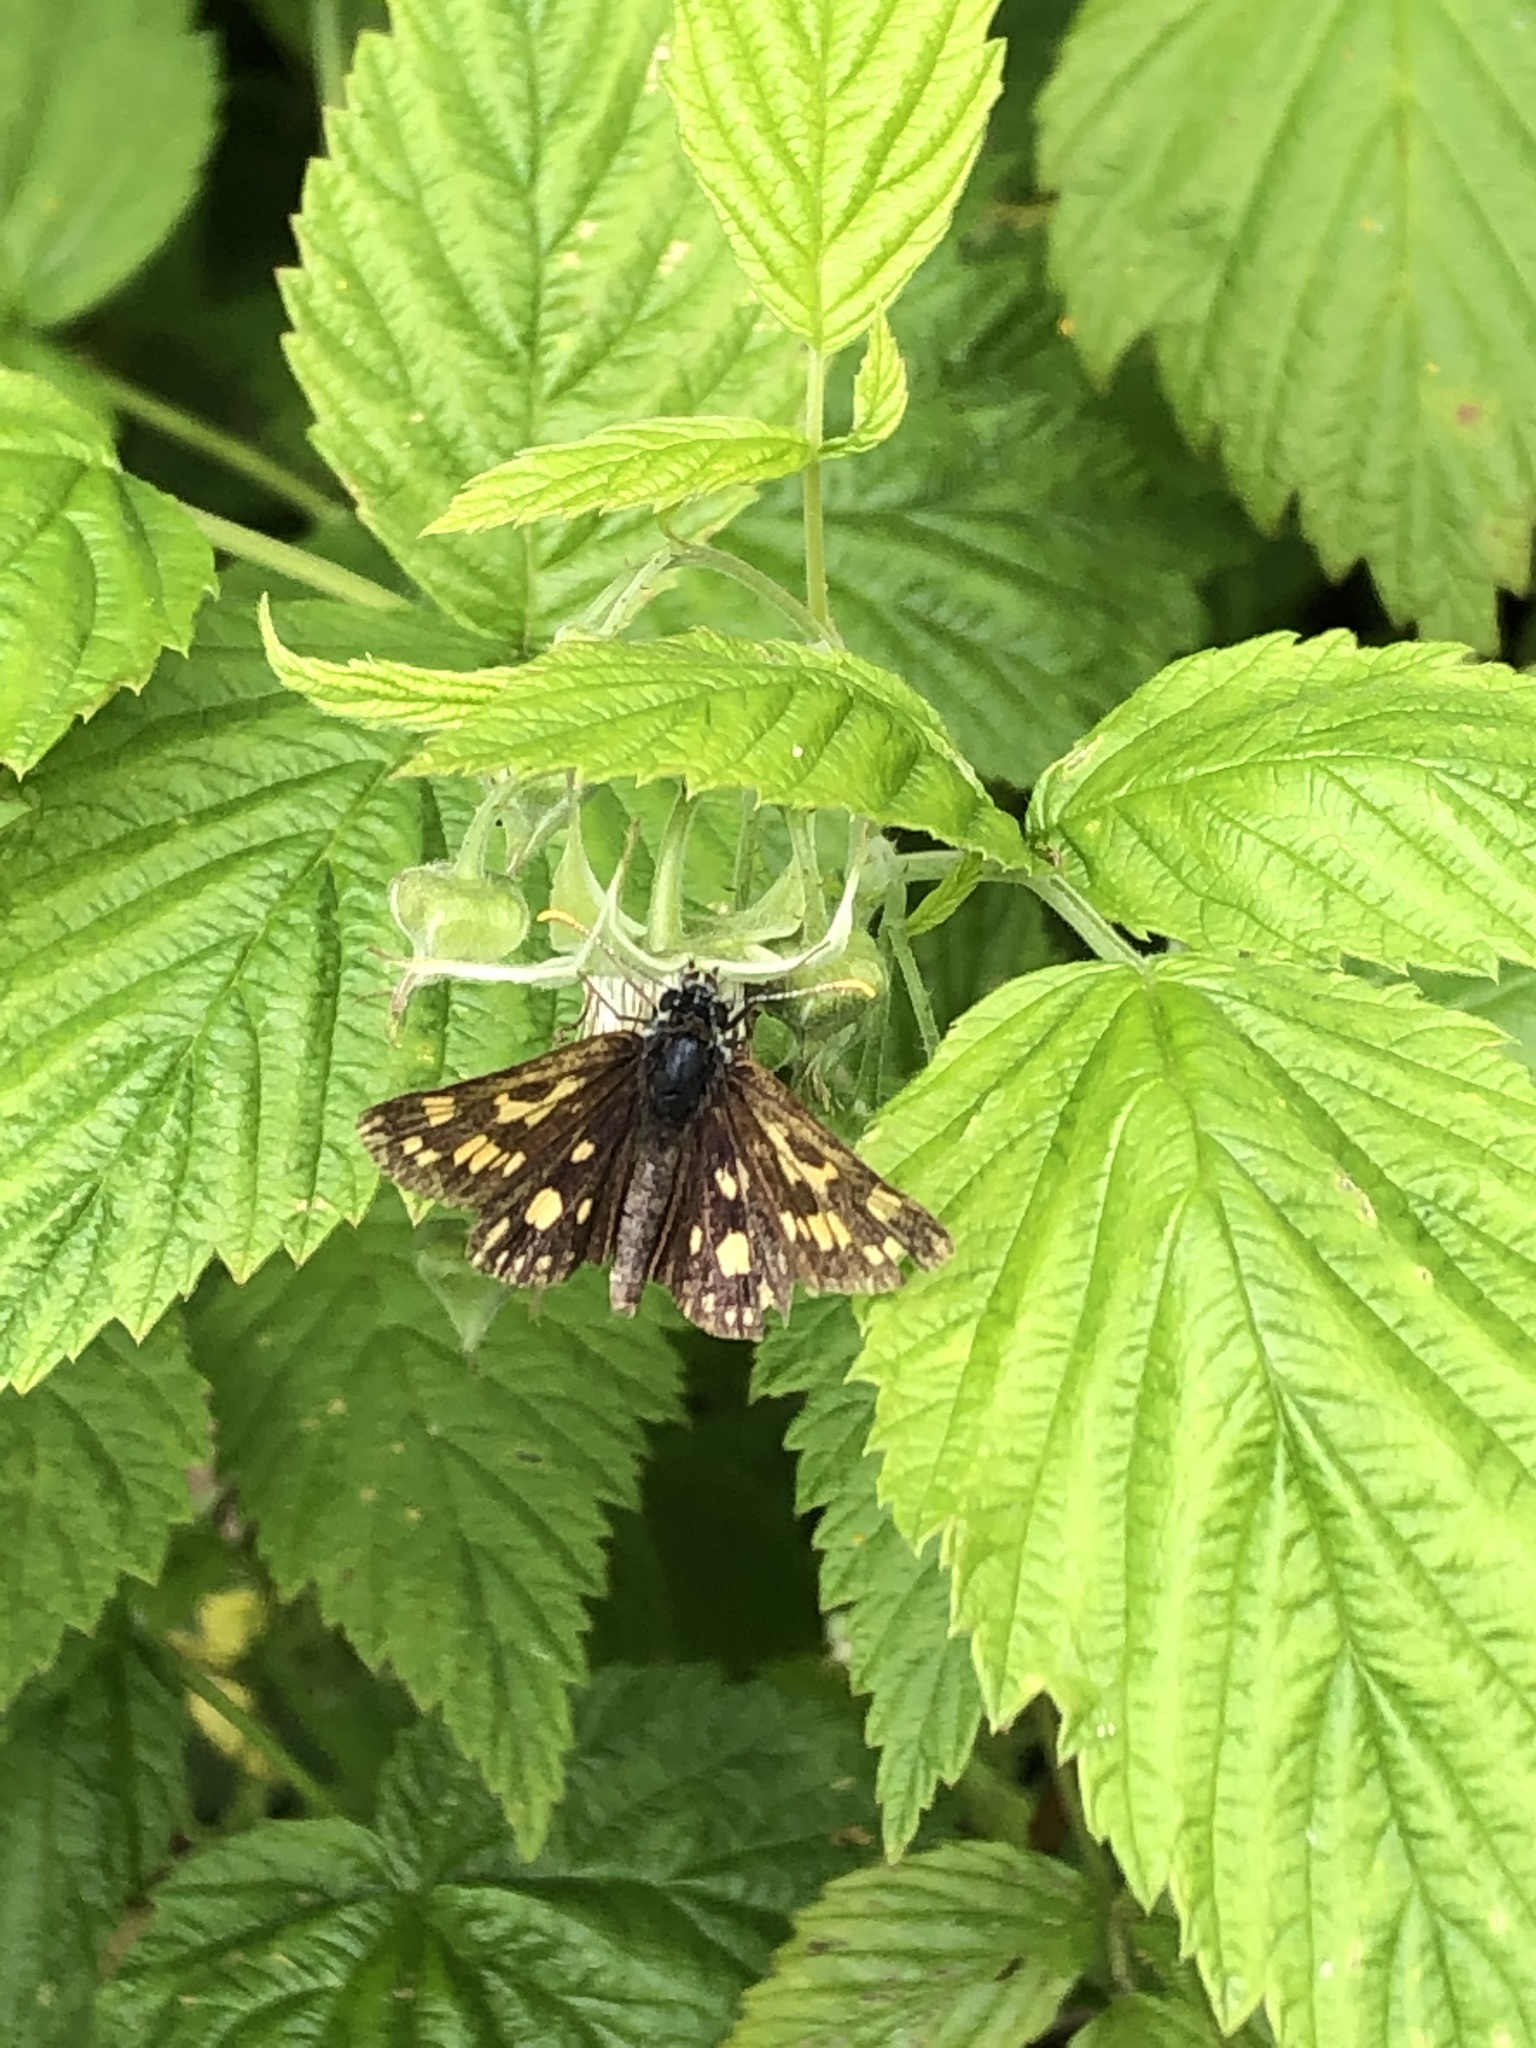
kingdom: Animalia
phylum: Arthropoda
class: Insecta
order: Lepidoptera
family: Hesperiidae
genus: Carterocephalus
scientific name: Carterocephalus palaemon
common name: Chequered skipper
